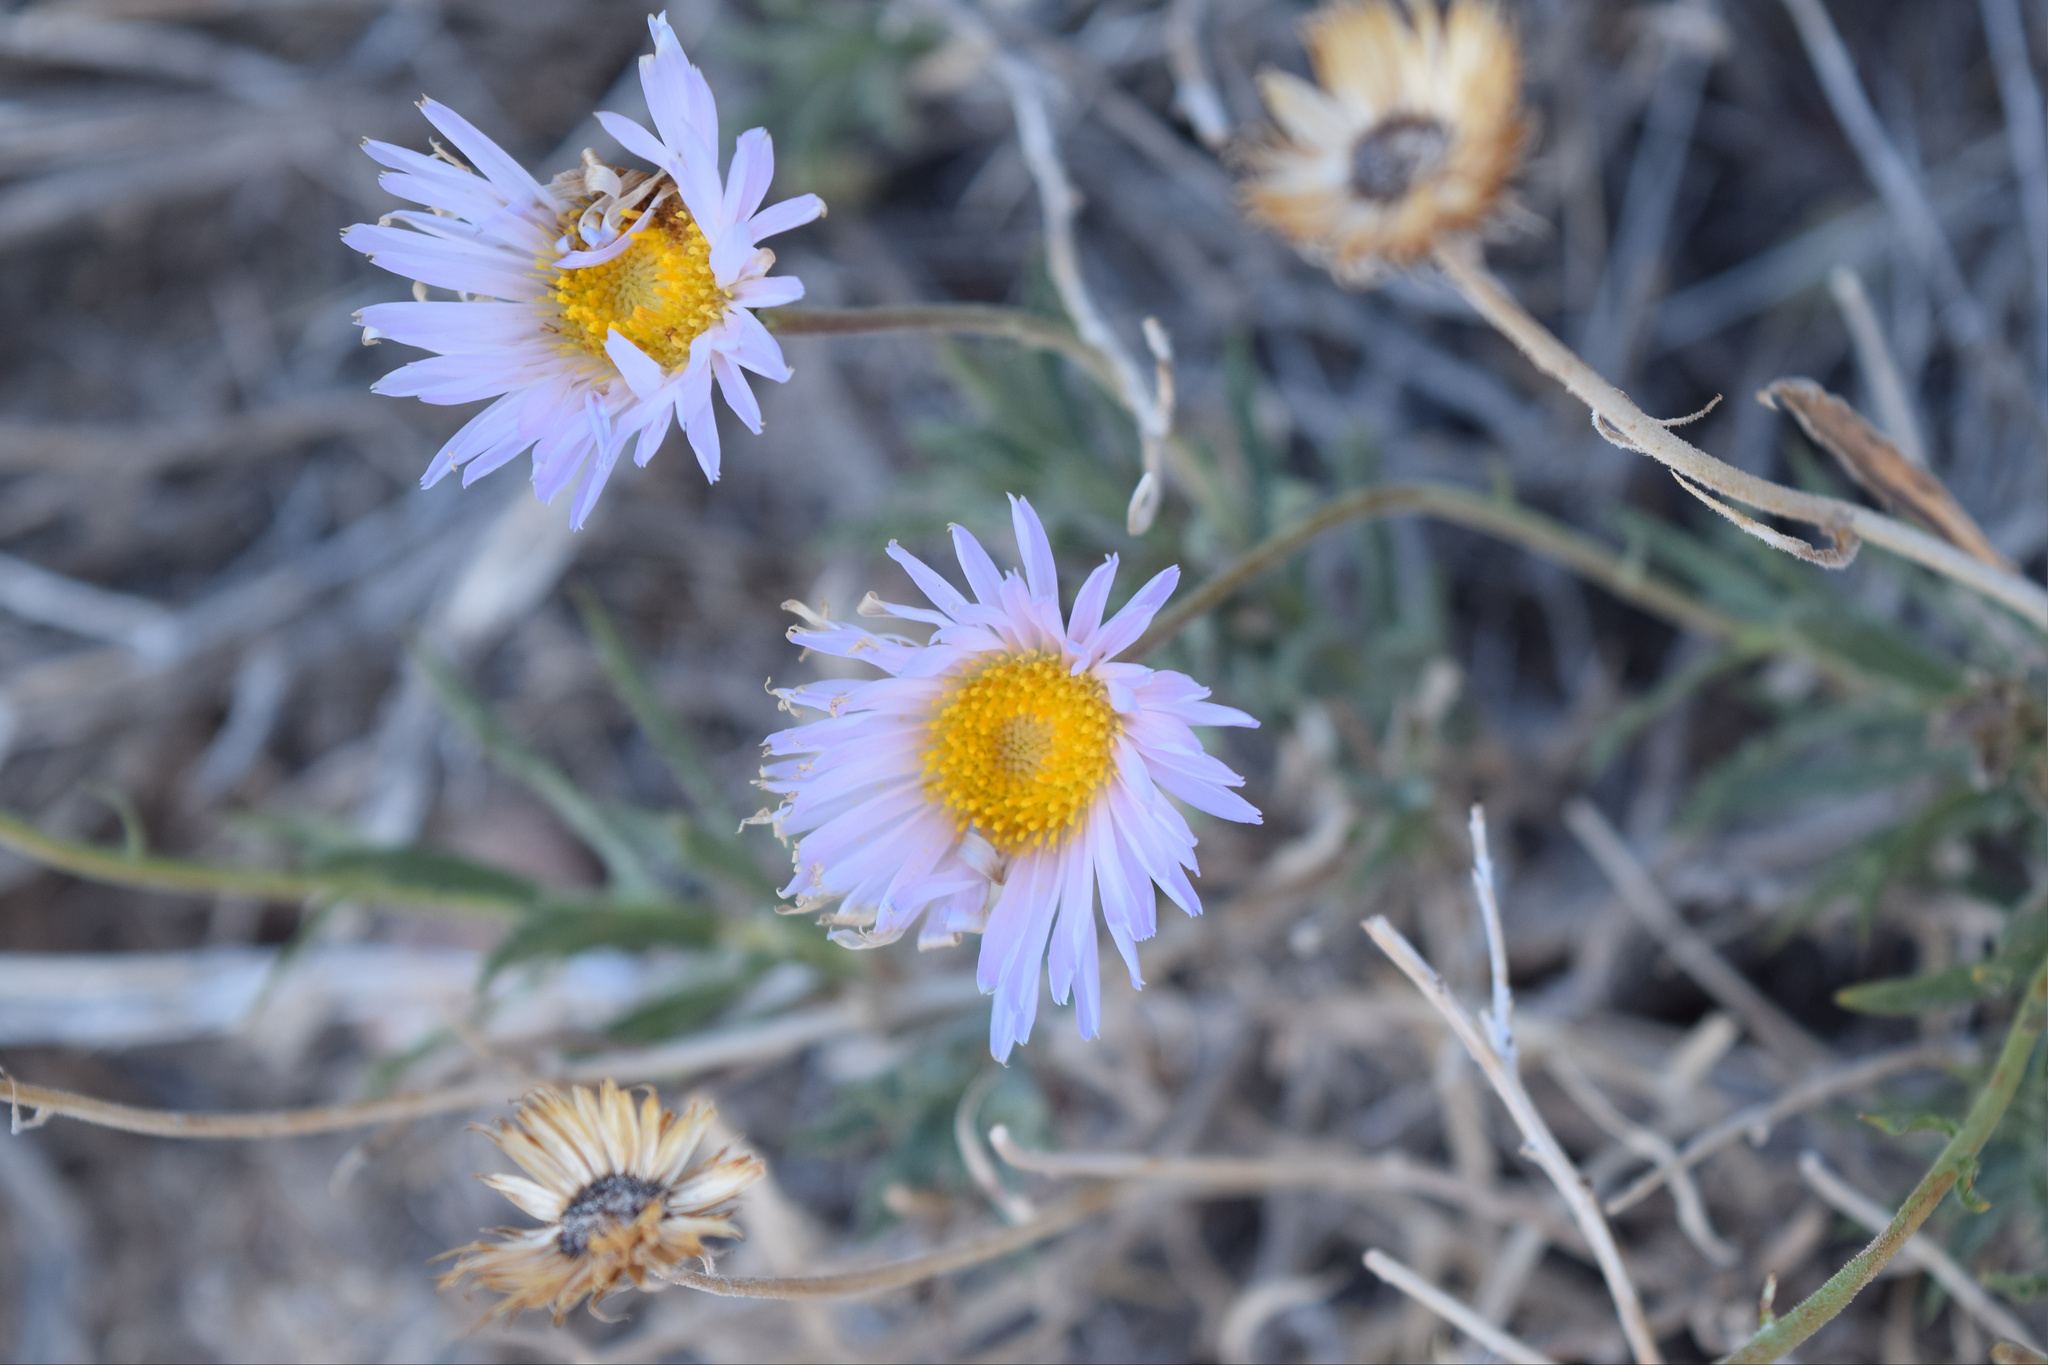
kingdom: Plantae
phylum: Tracheophyta
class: Magnoliopsida
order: Asterales
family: Asteraceae
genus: Xylorhiza
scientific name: Xylorhiza tortifolia
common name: Hurt-leaf woody-aster
